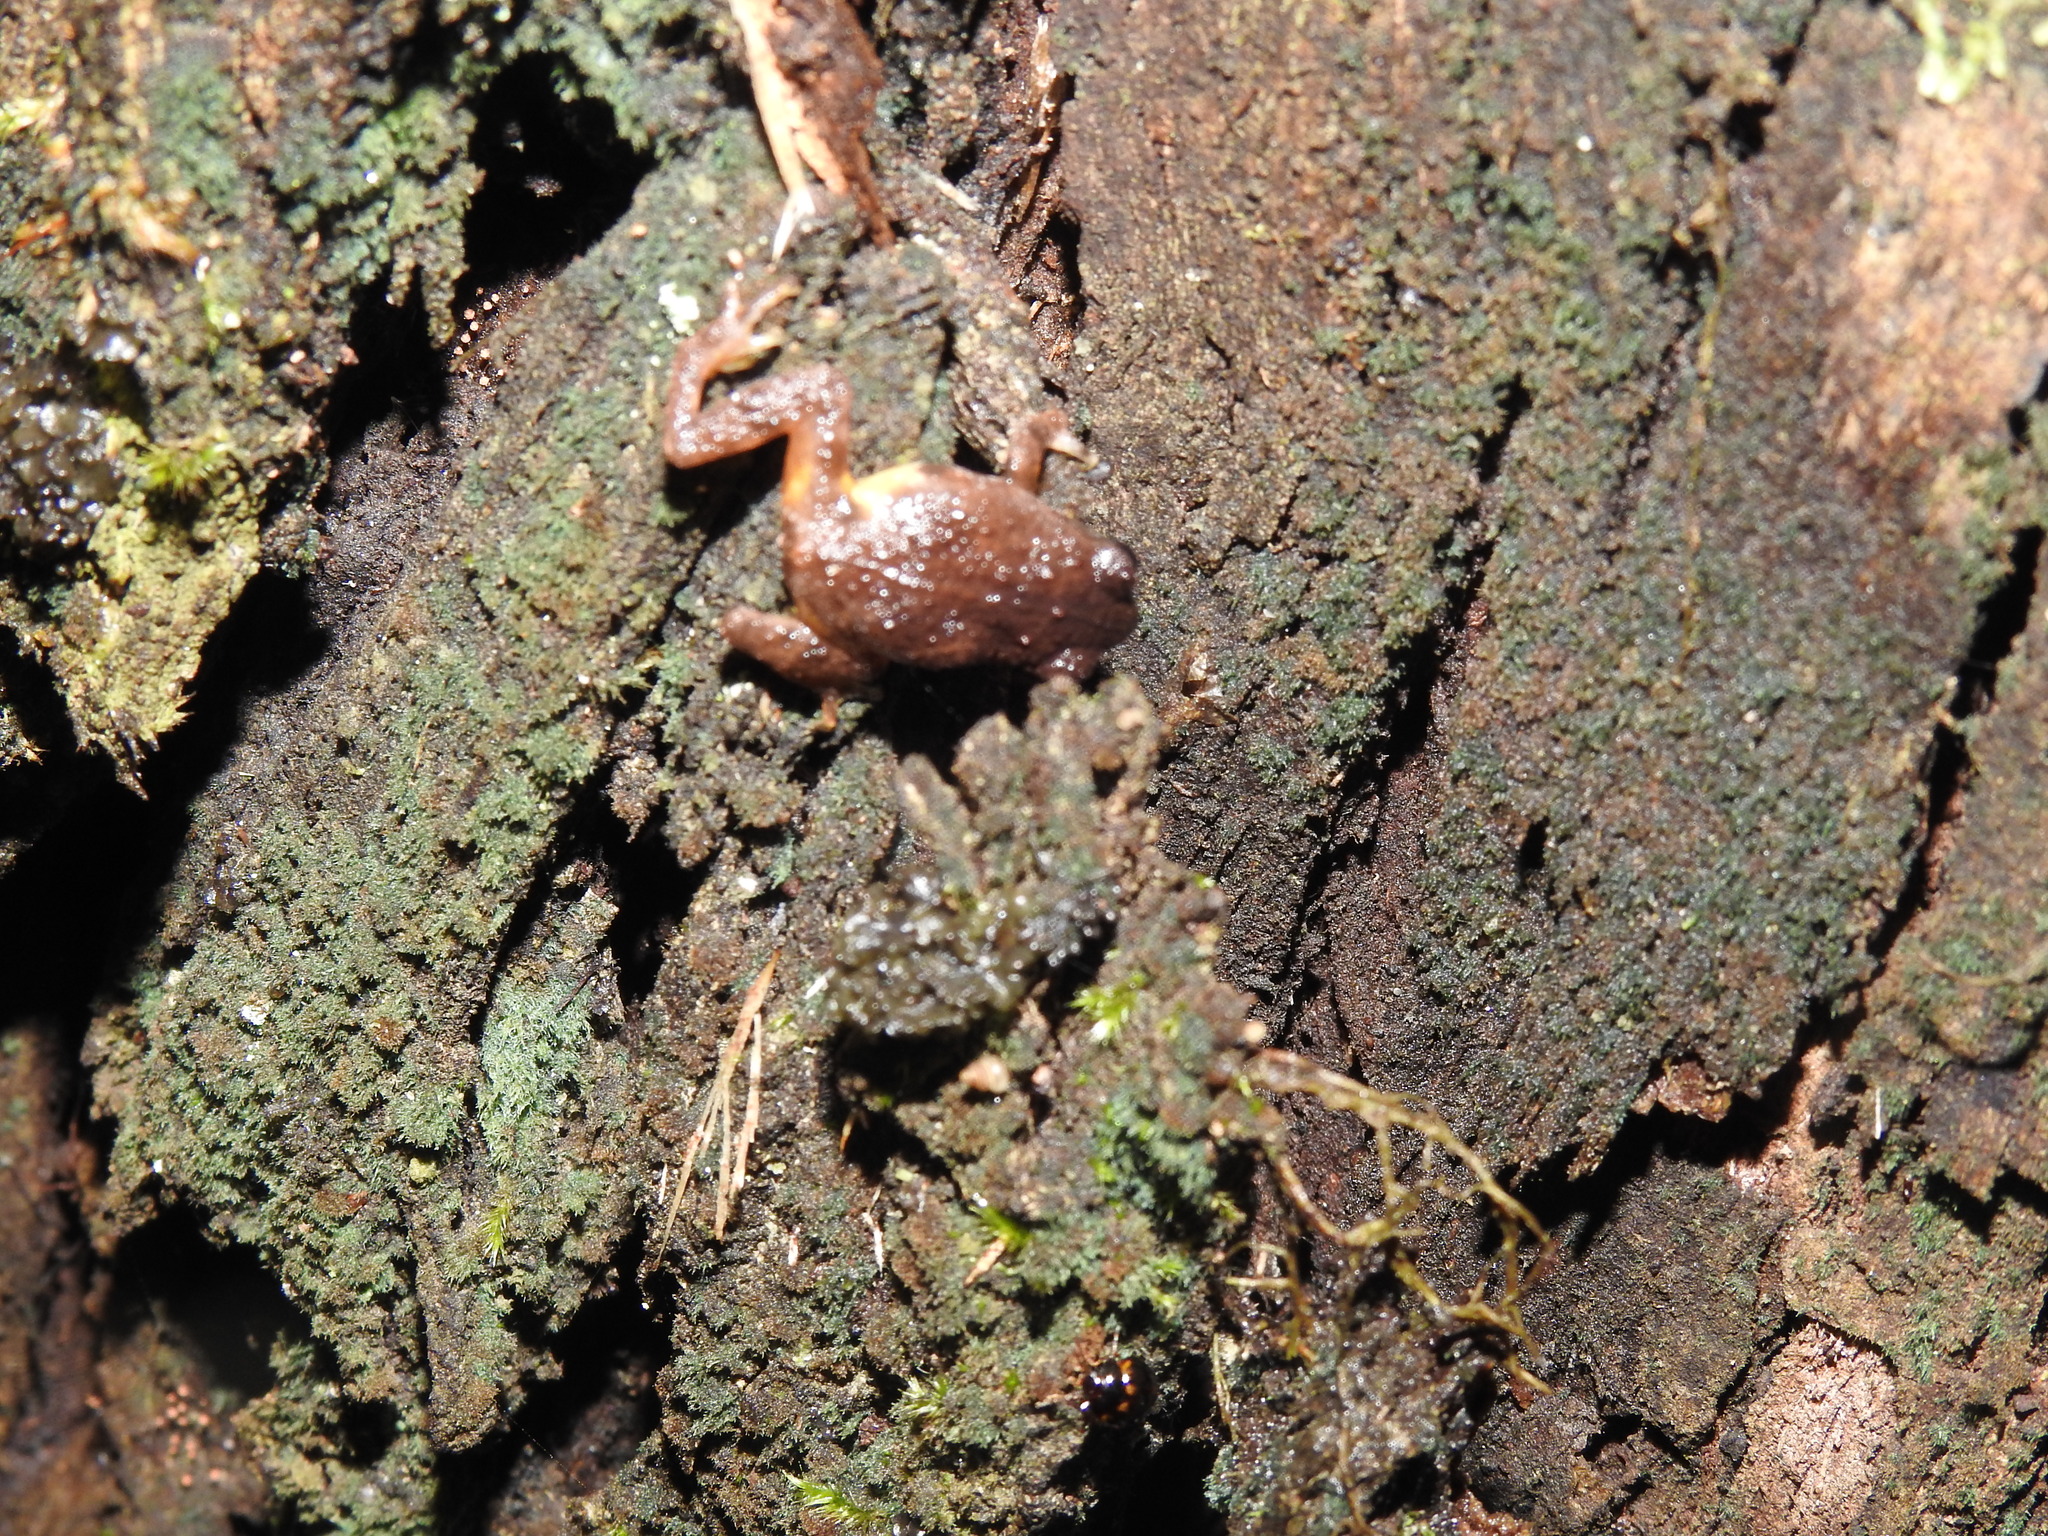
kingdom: Animalia
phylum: Chordata
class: Amphibia
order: Anura
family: Rhacophoridae
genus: Raorchestes
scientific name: Raorchestes dubois
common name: Koadaikanal bush frog
